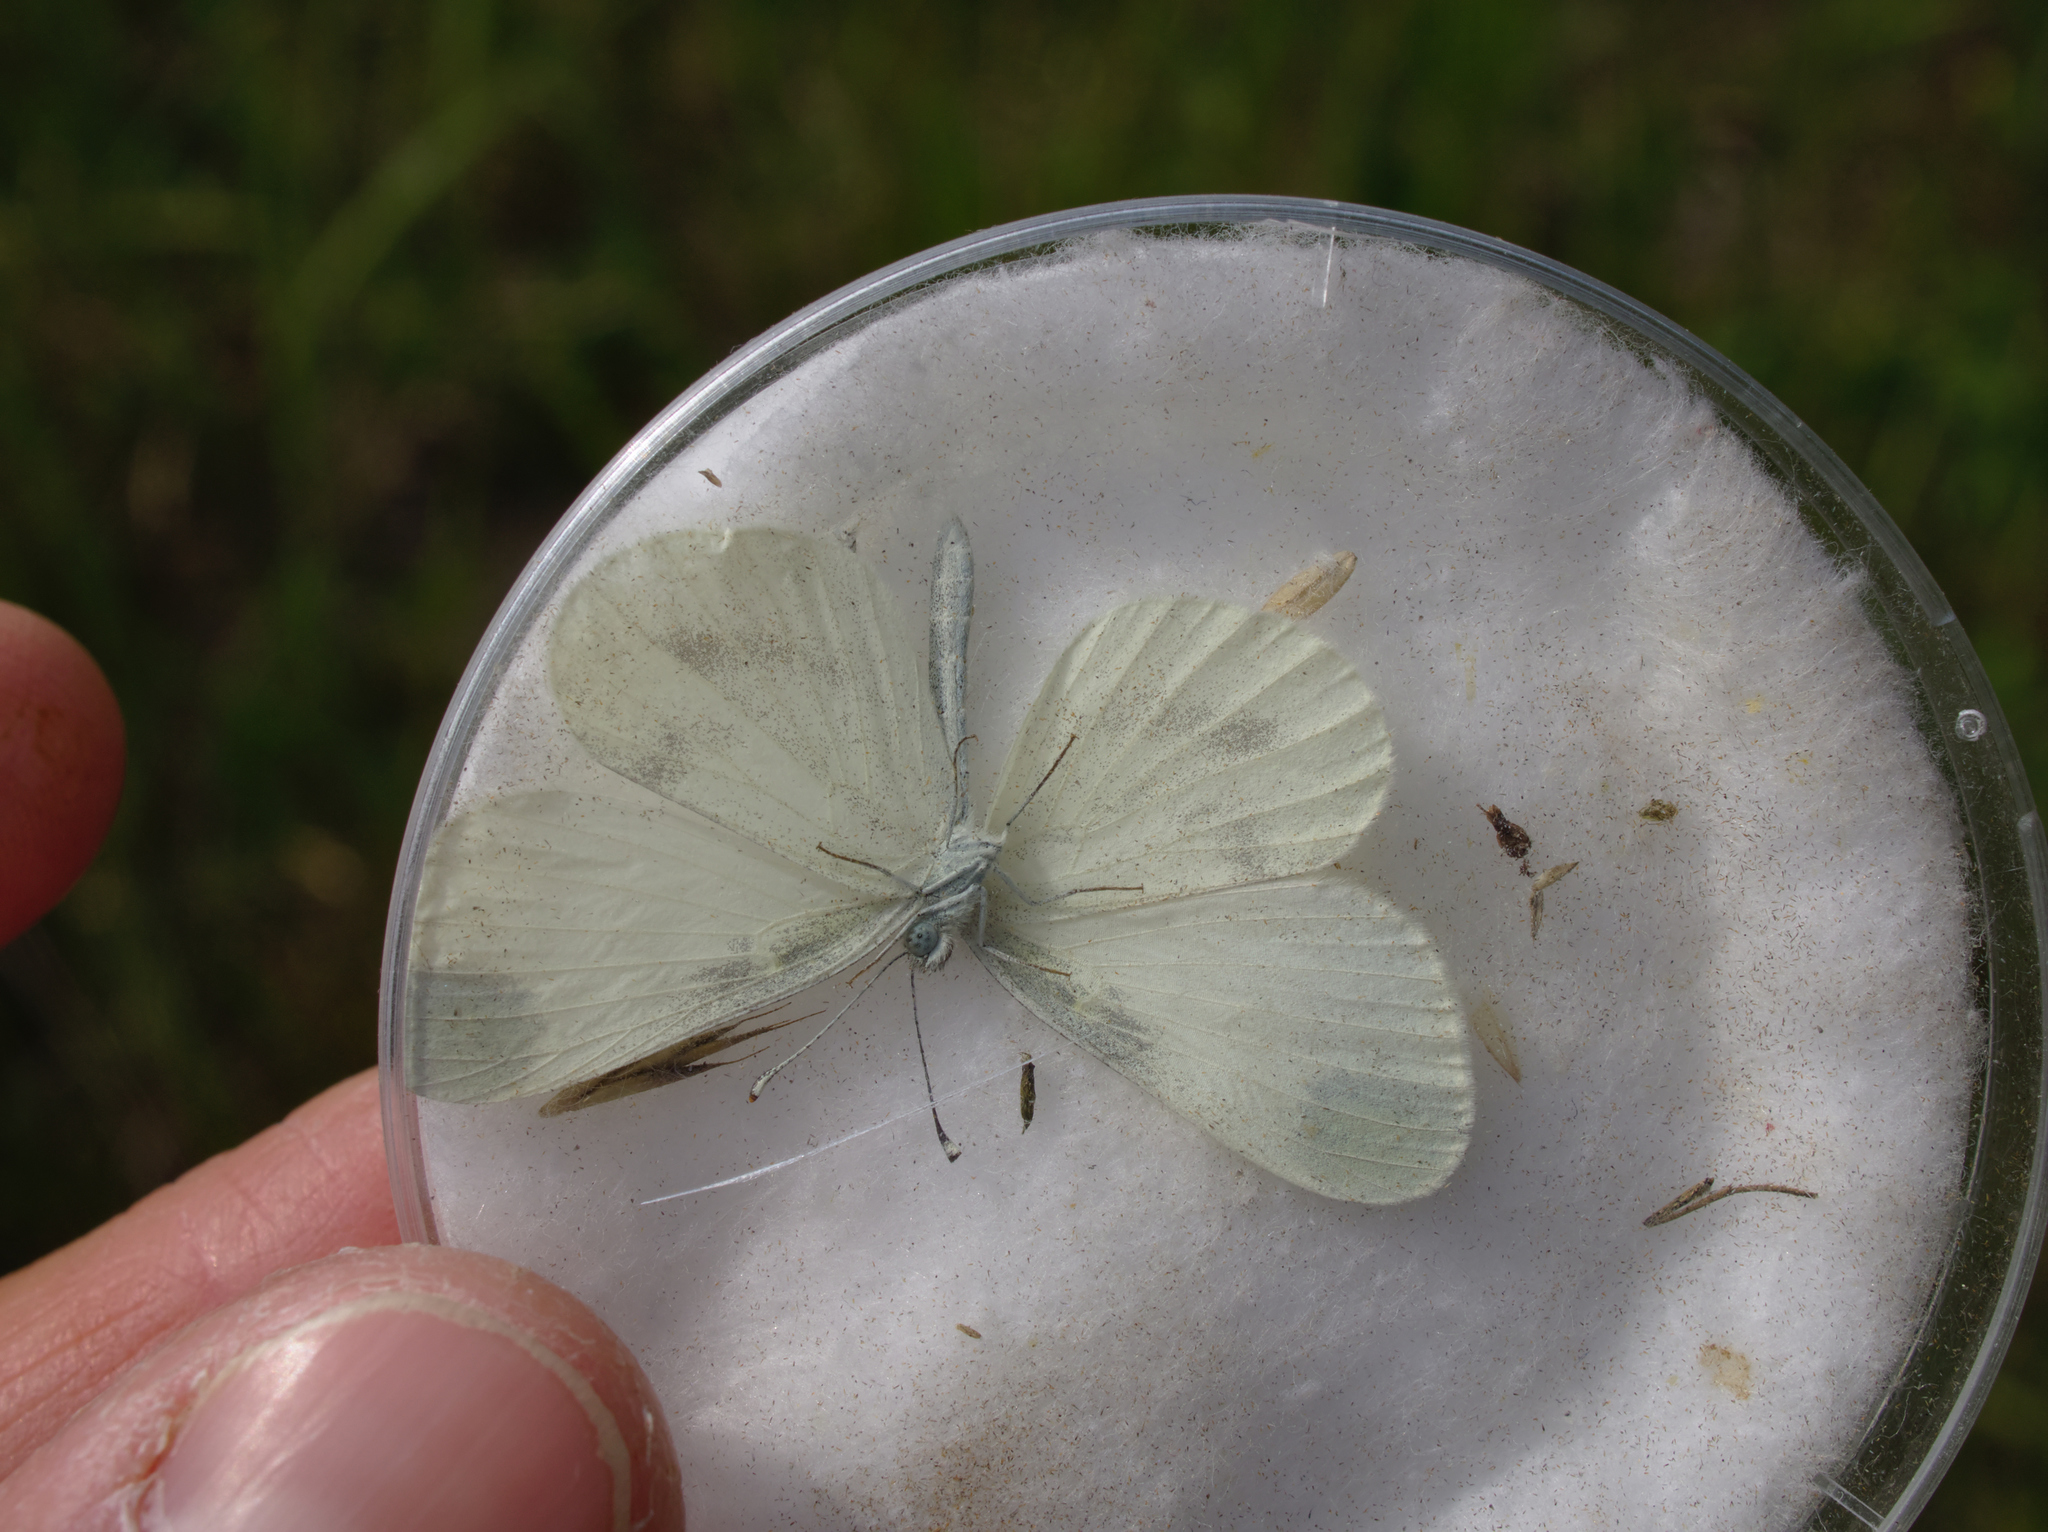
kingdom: Animalia
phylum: Arthropoda
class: Insecta
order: Lepidoptera
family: Pieridae
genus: Leptidea
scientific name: Leptidea
